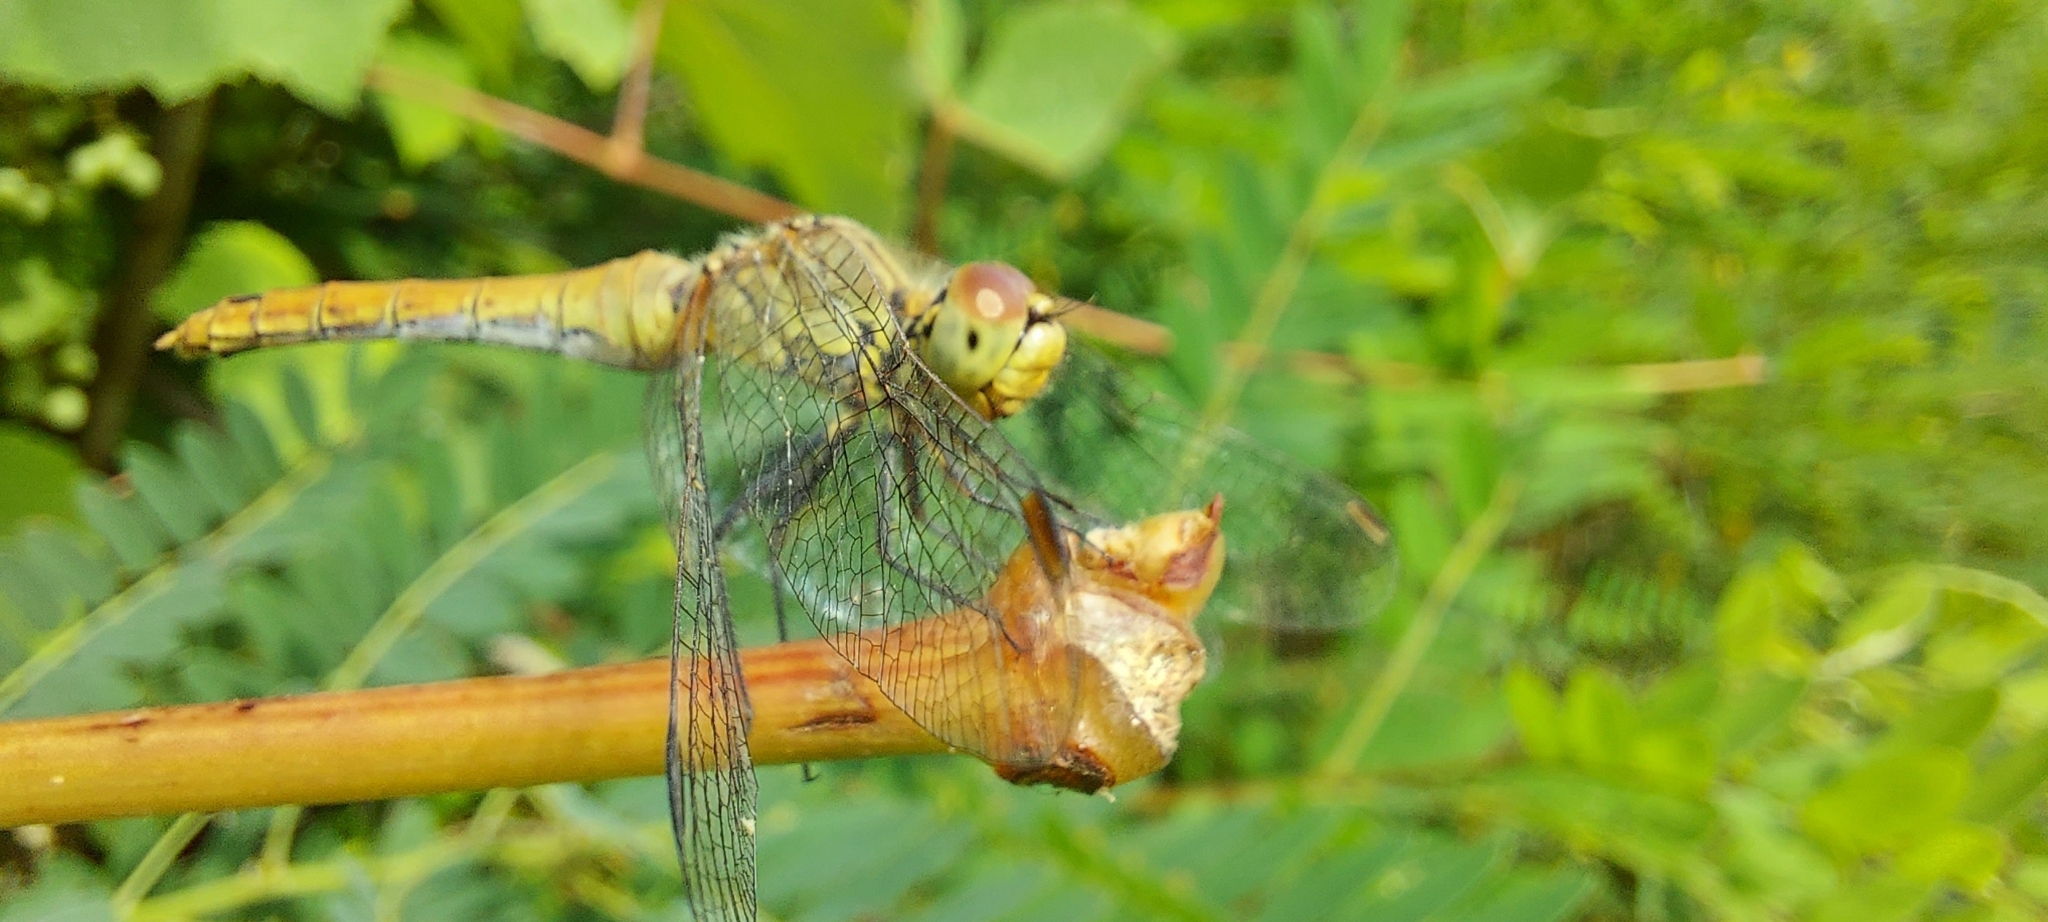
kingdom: Animalia
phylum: Arthropoda
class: Insecta
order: Odonata
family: Libellulidae
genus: Sympetrum
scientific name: Sympetrum sanguineum
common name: Ruddy darter
